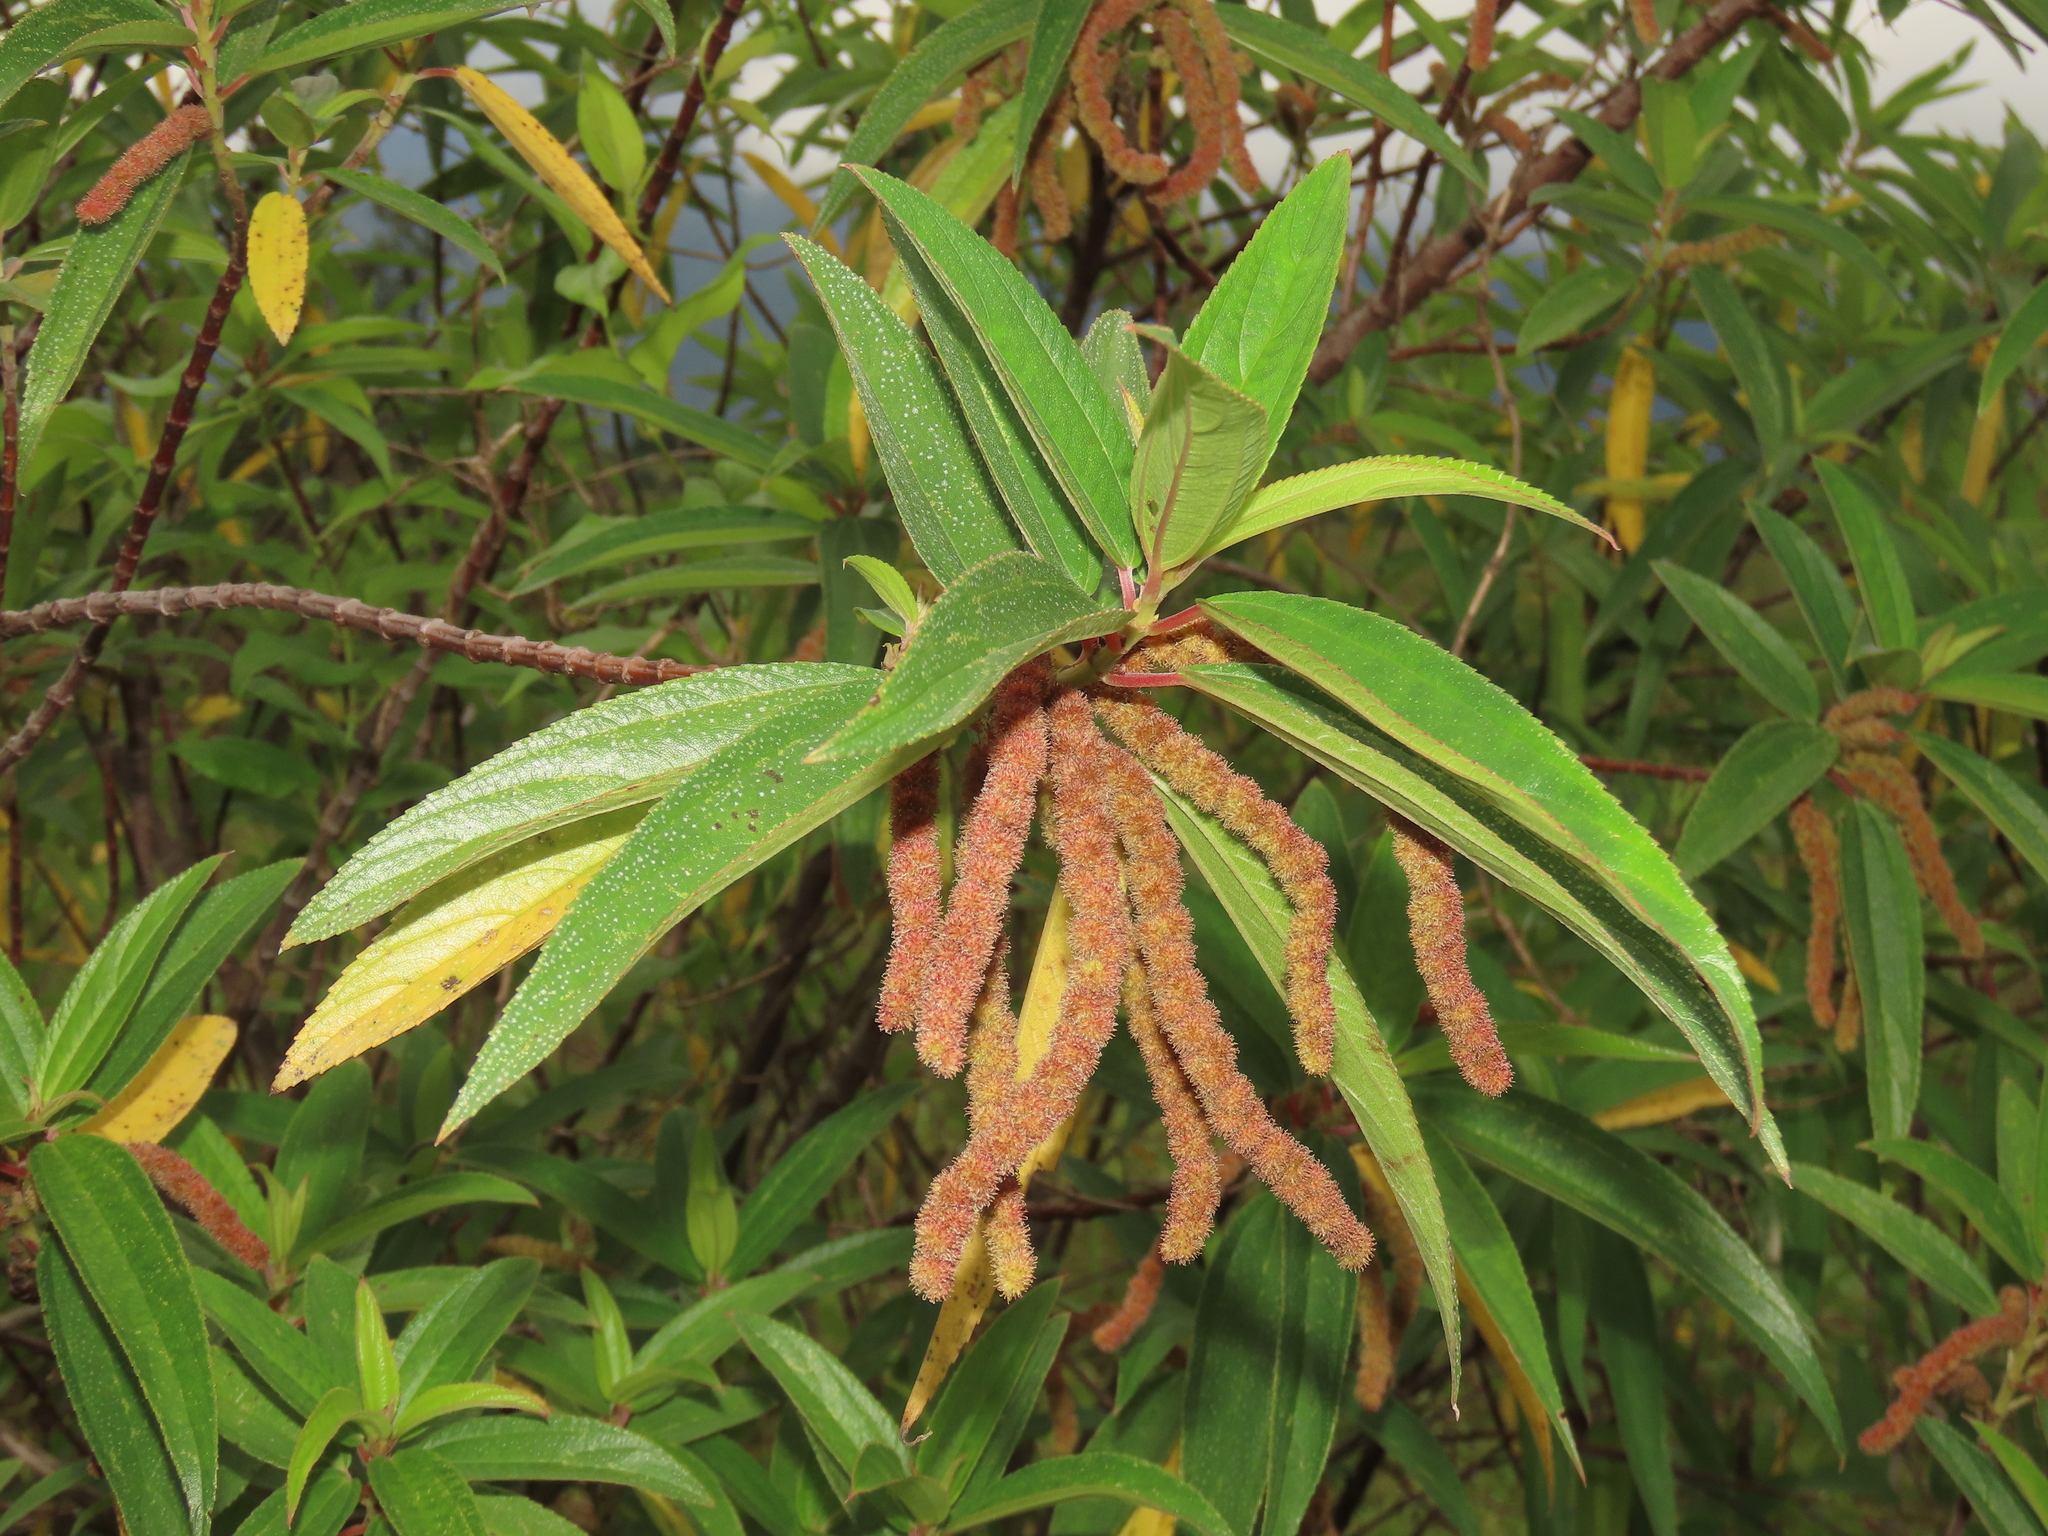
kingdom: Plantae
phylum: Tracheophyta
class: Magnoliopsida
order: Rosales
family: Urticaceae
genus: Boehmeria
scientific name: Boehmeria densiflora
